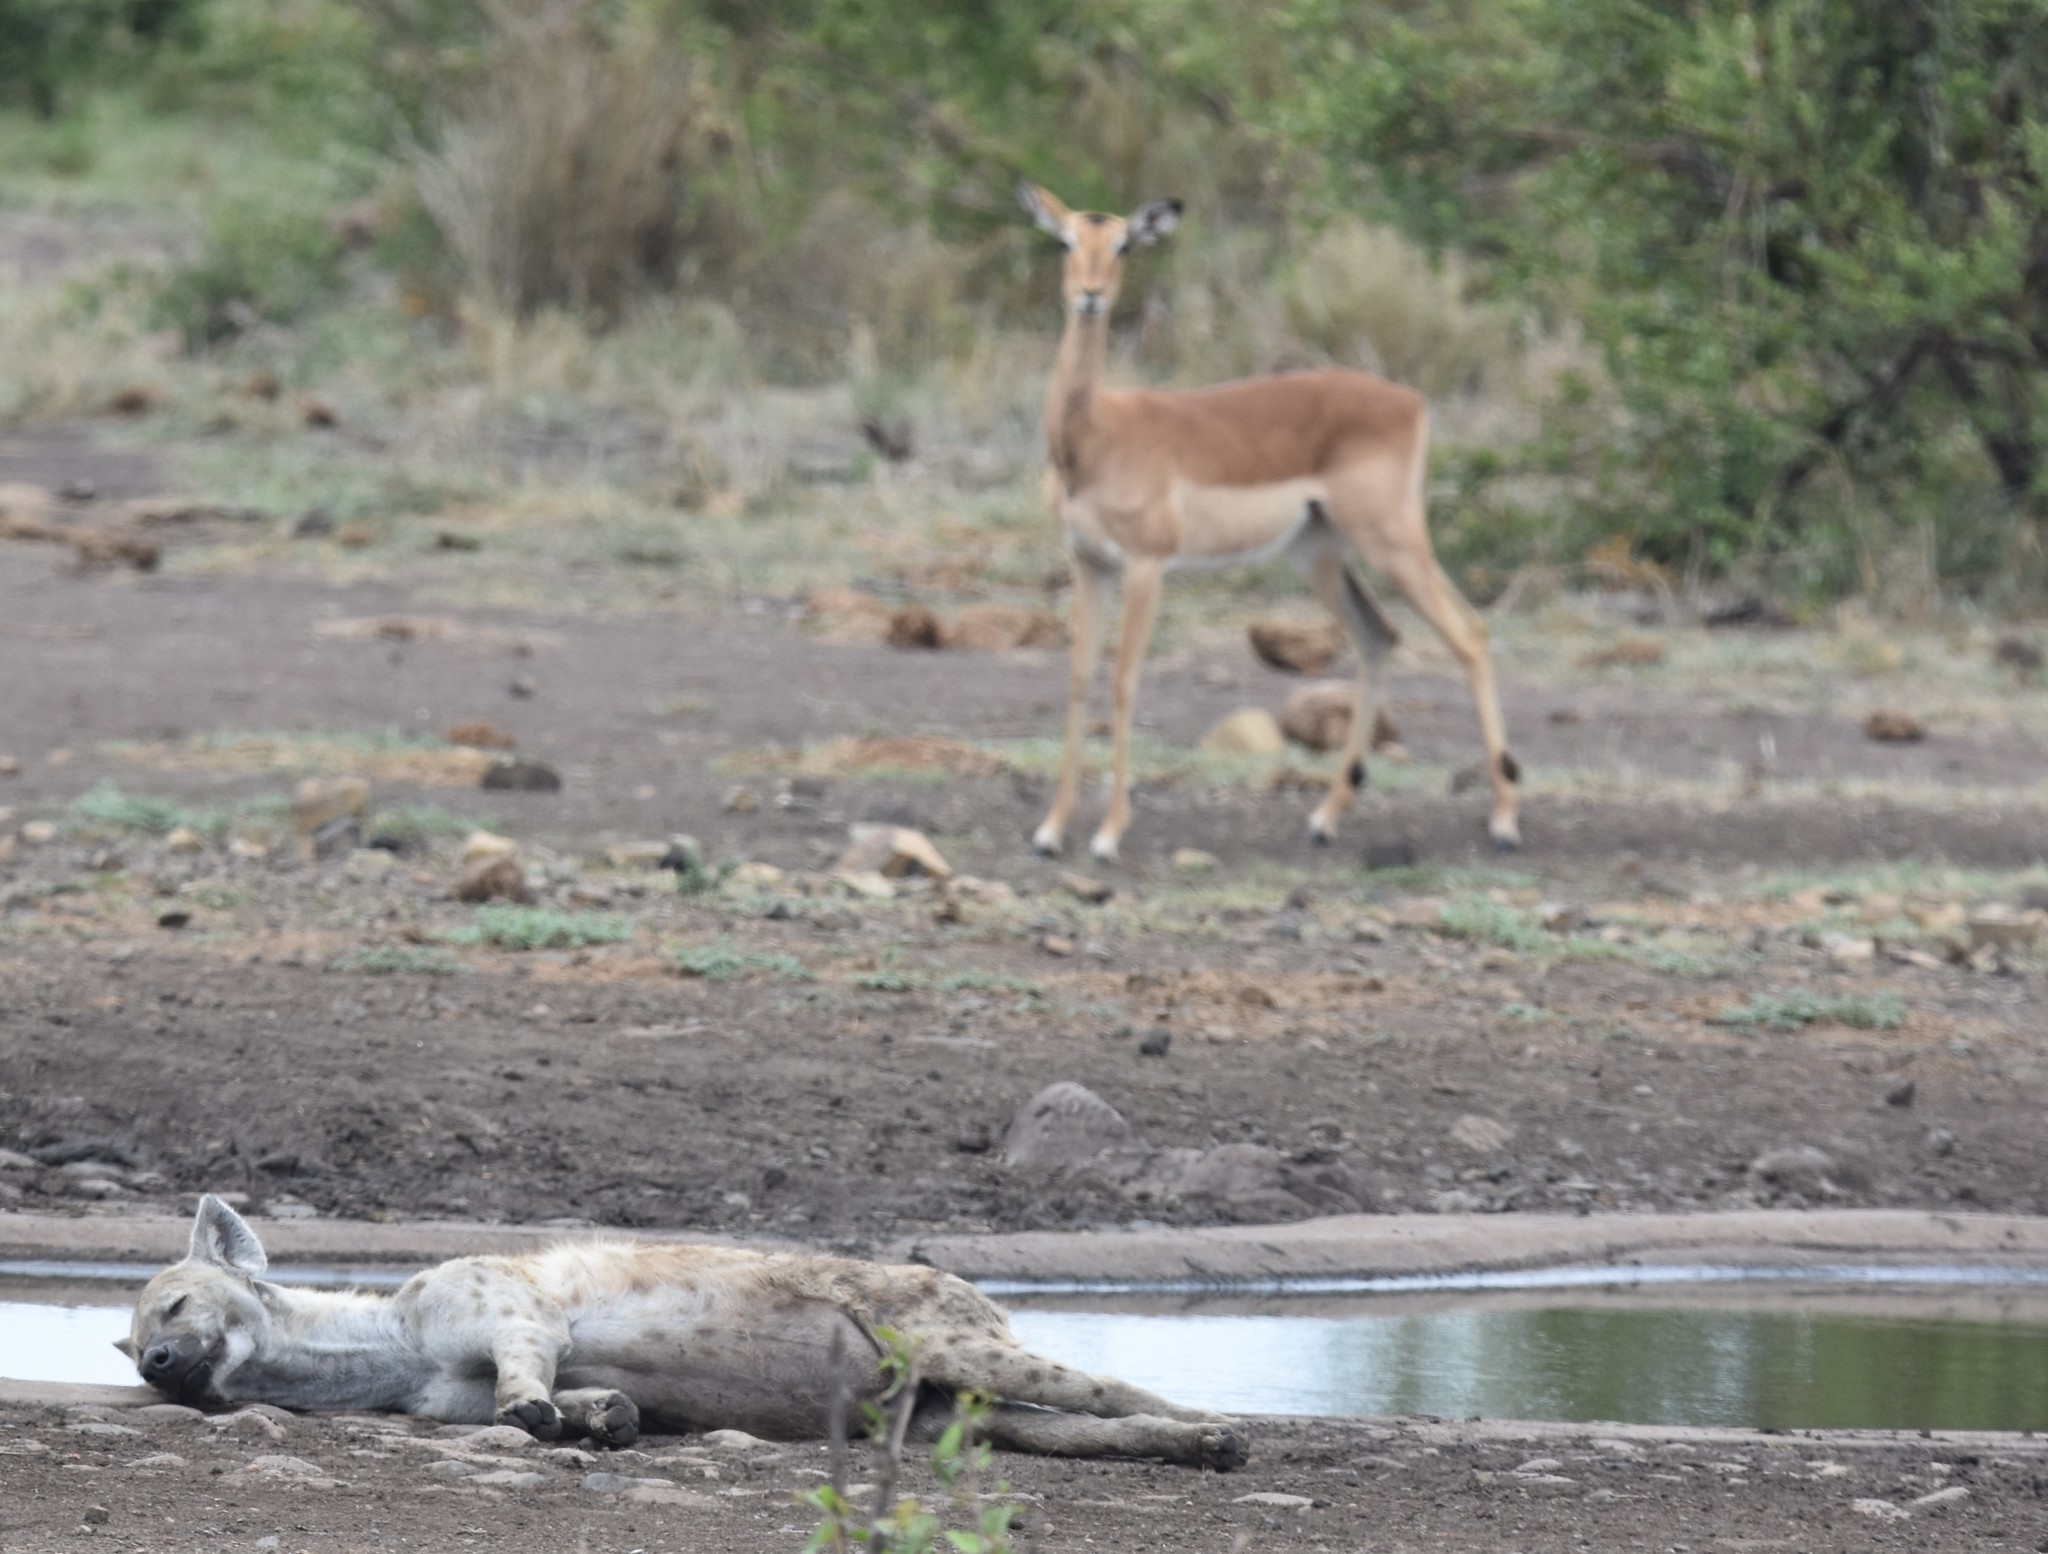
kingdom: Animalia
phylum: Chordata
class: Mammalia
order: Artiodactyla
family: Bovidae
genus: Aepyceros
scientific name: Aepyceros melampus
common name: Impala
